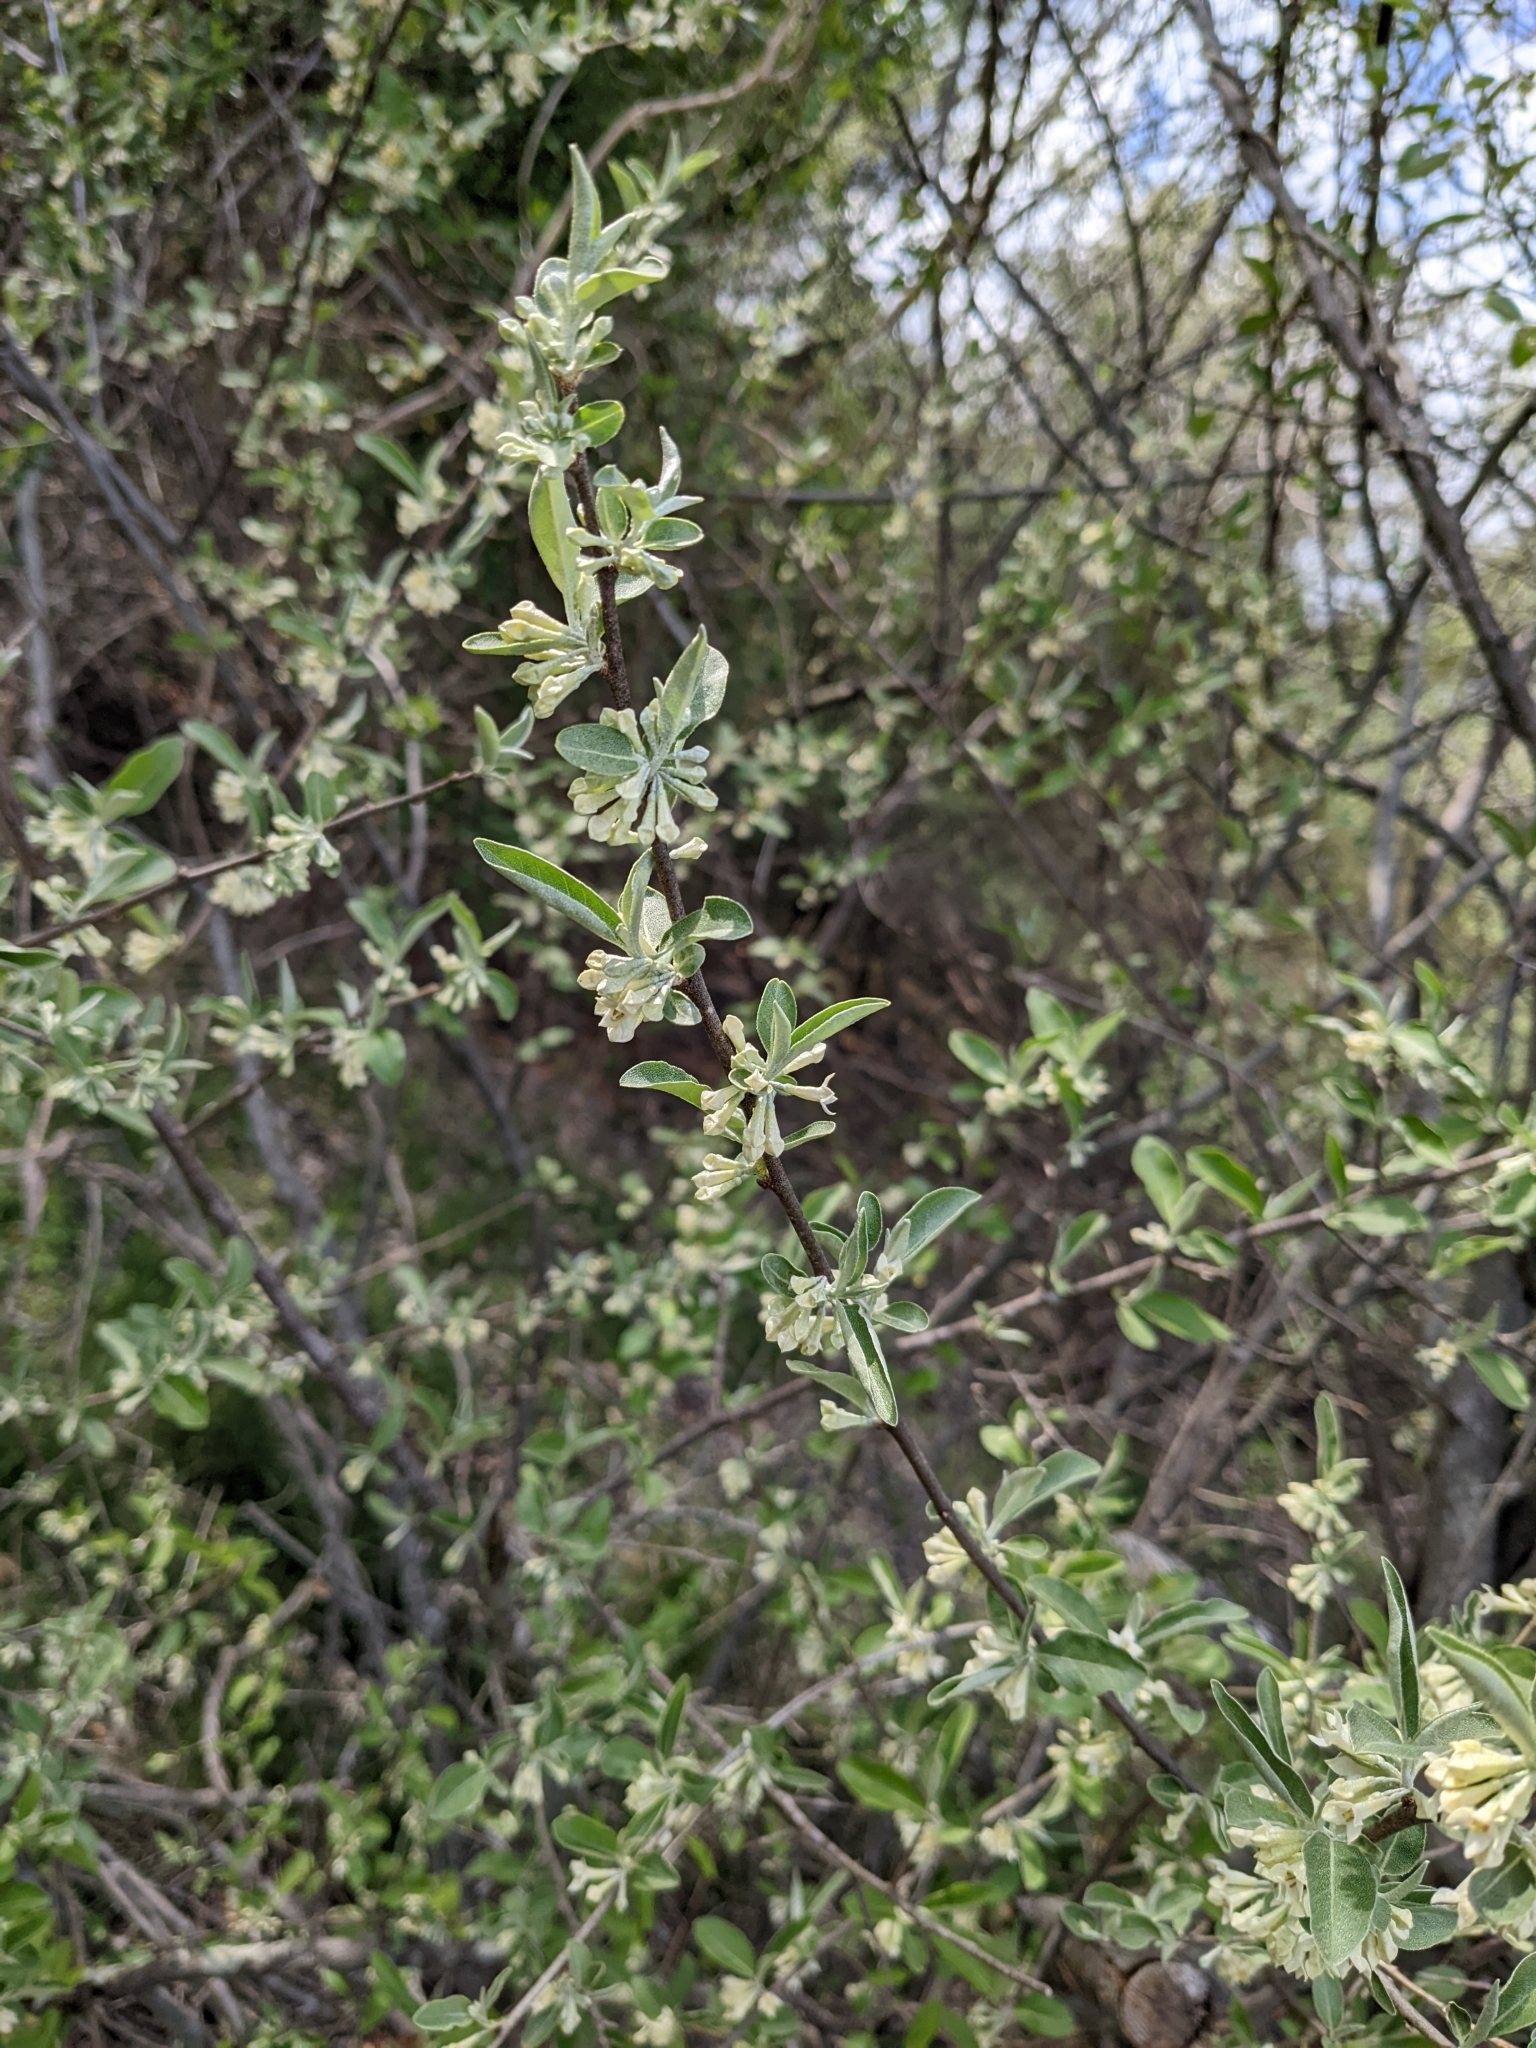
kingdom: Plantae
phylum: Tracheophyta
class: Magnoliopsida
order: Rosales
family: Elaeagnaceae
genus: Elaeagnus
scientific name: Elaeagnus umbellata
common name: Autumn olive
